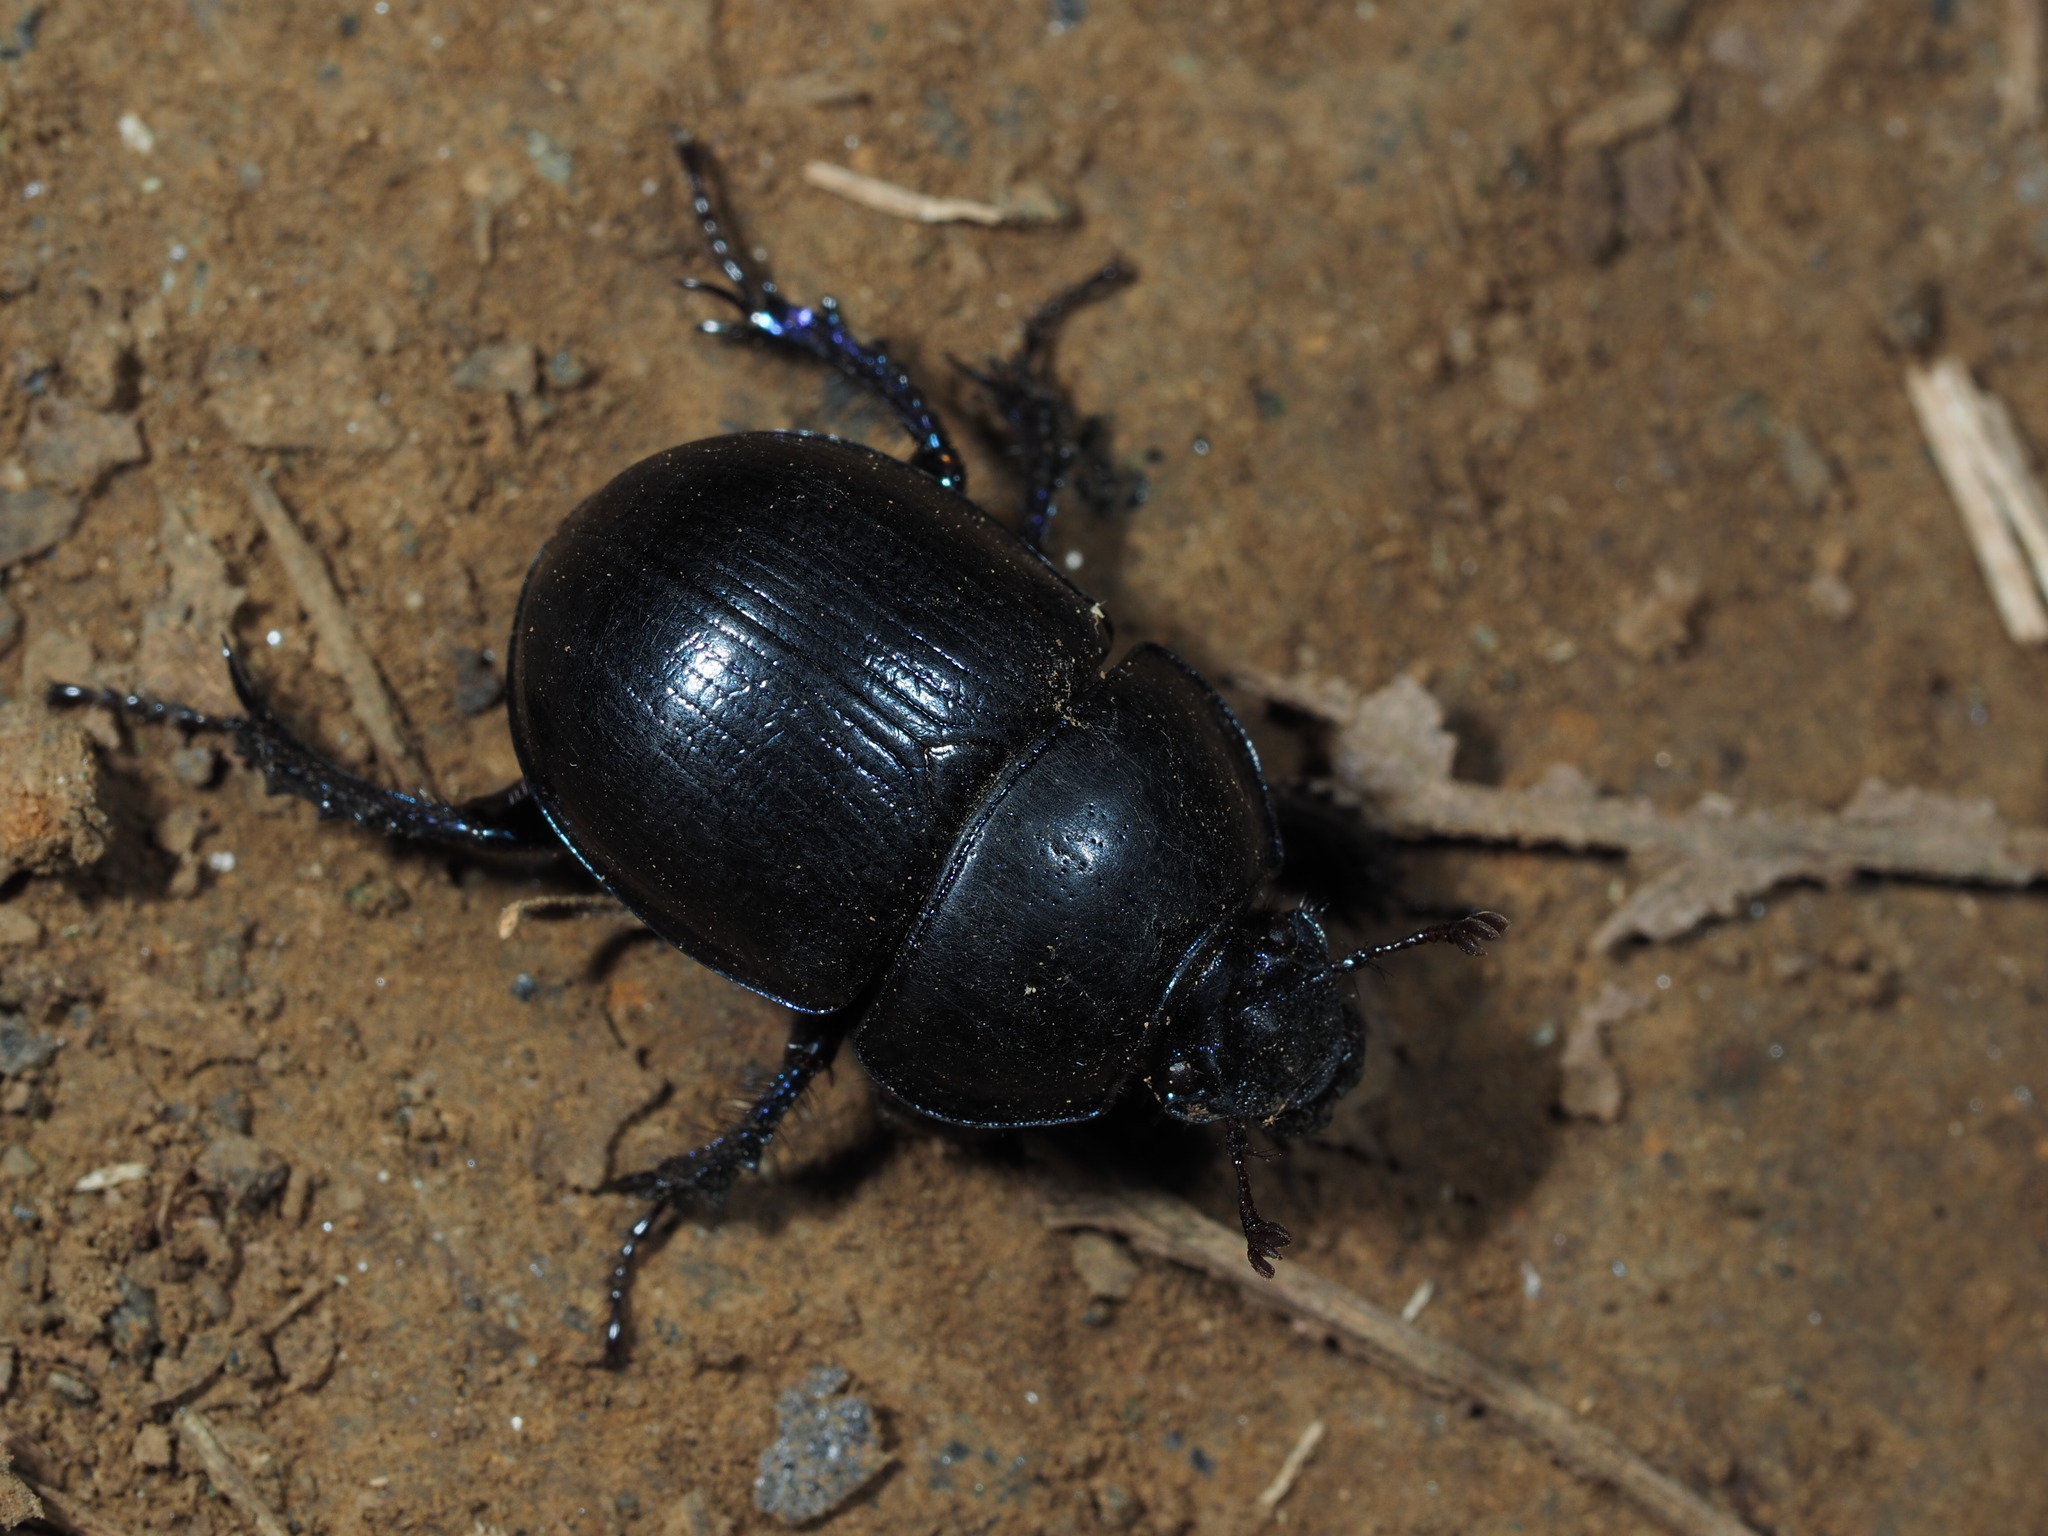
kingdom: Animalia
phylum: Arthropoda
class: Insecta
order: Coleoptera
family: Geotrupidae
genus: Anoplotrupes
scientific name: Anoplotrupes stercorosus
